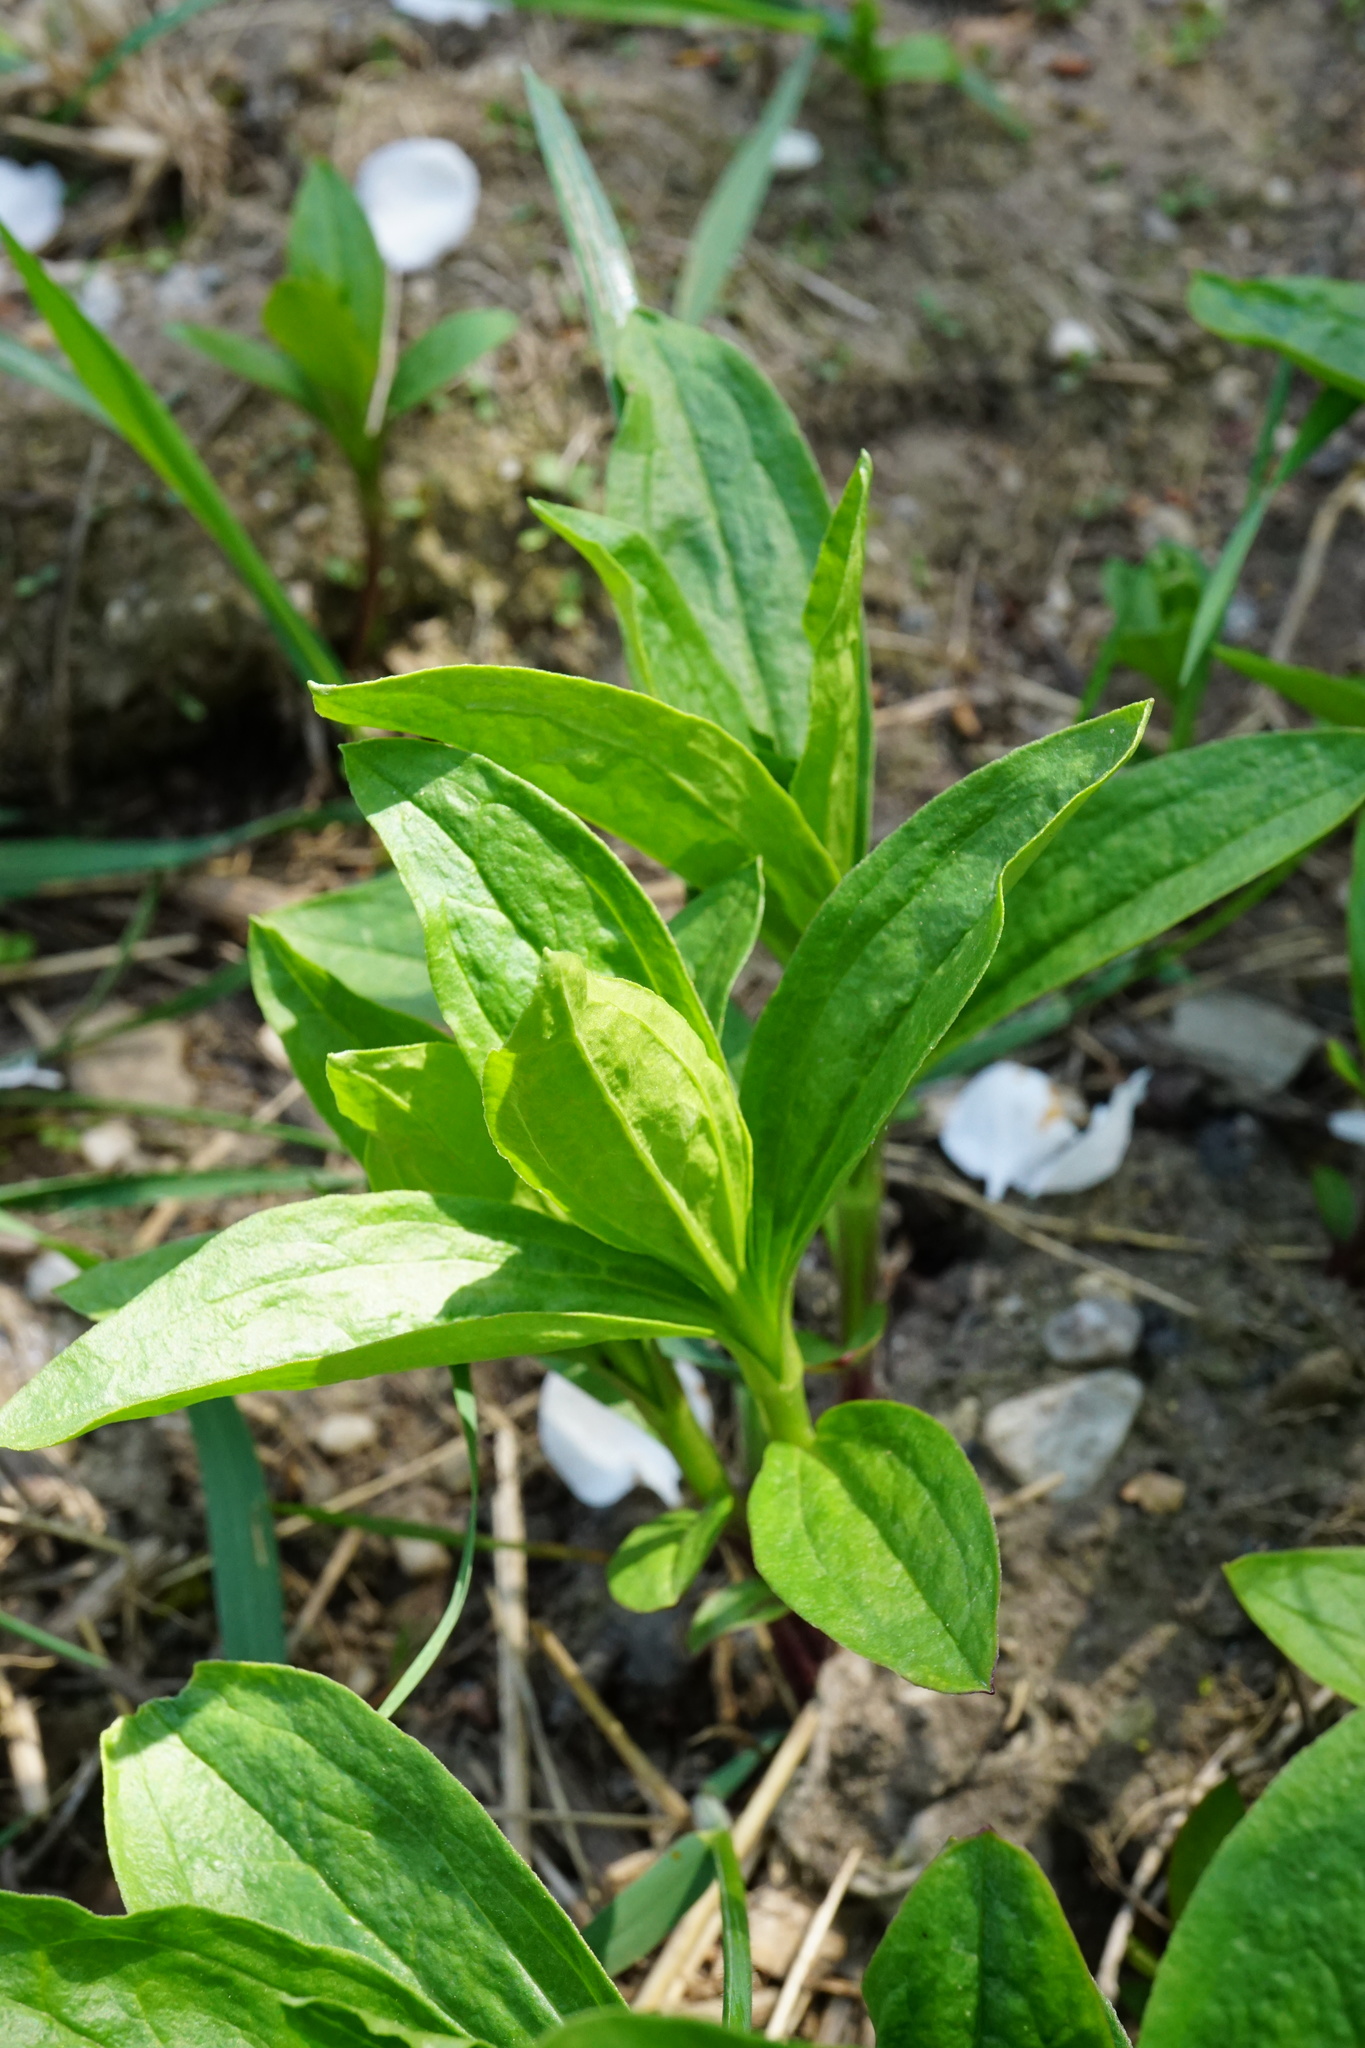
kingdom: Plantae
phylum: Tracheophyta
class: Magnoliopsida
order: Caryophyllales
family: Caryophyllaceae
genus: Saponaria
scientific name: Saponaria officinalis
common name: Soapwort
